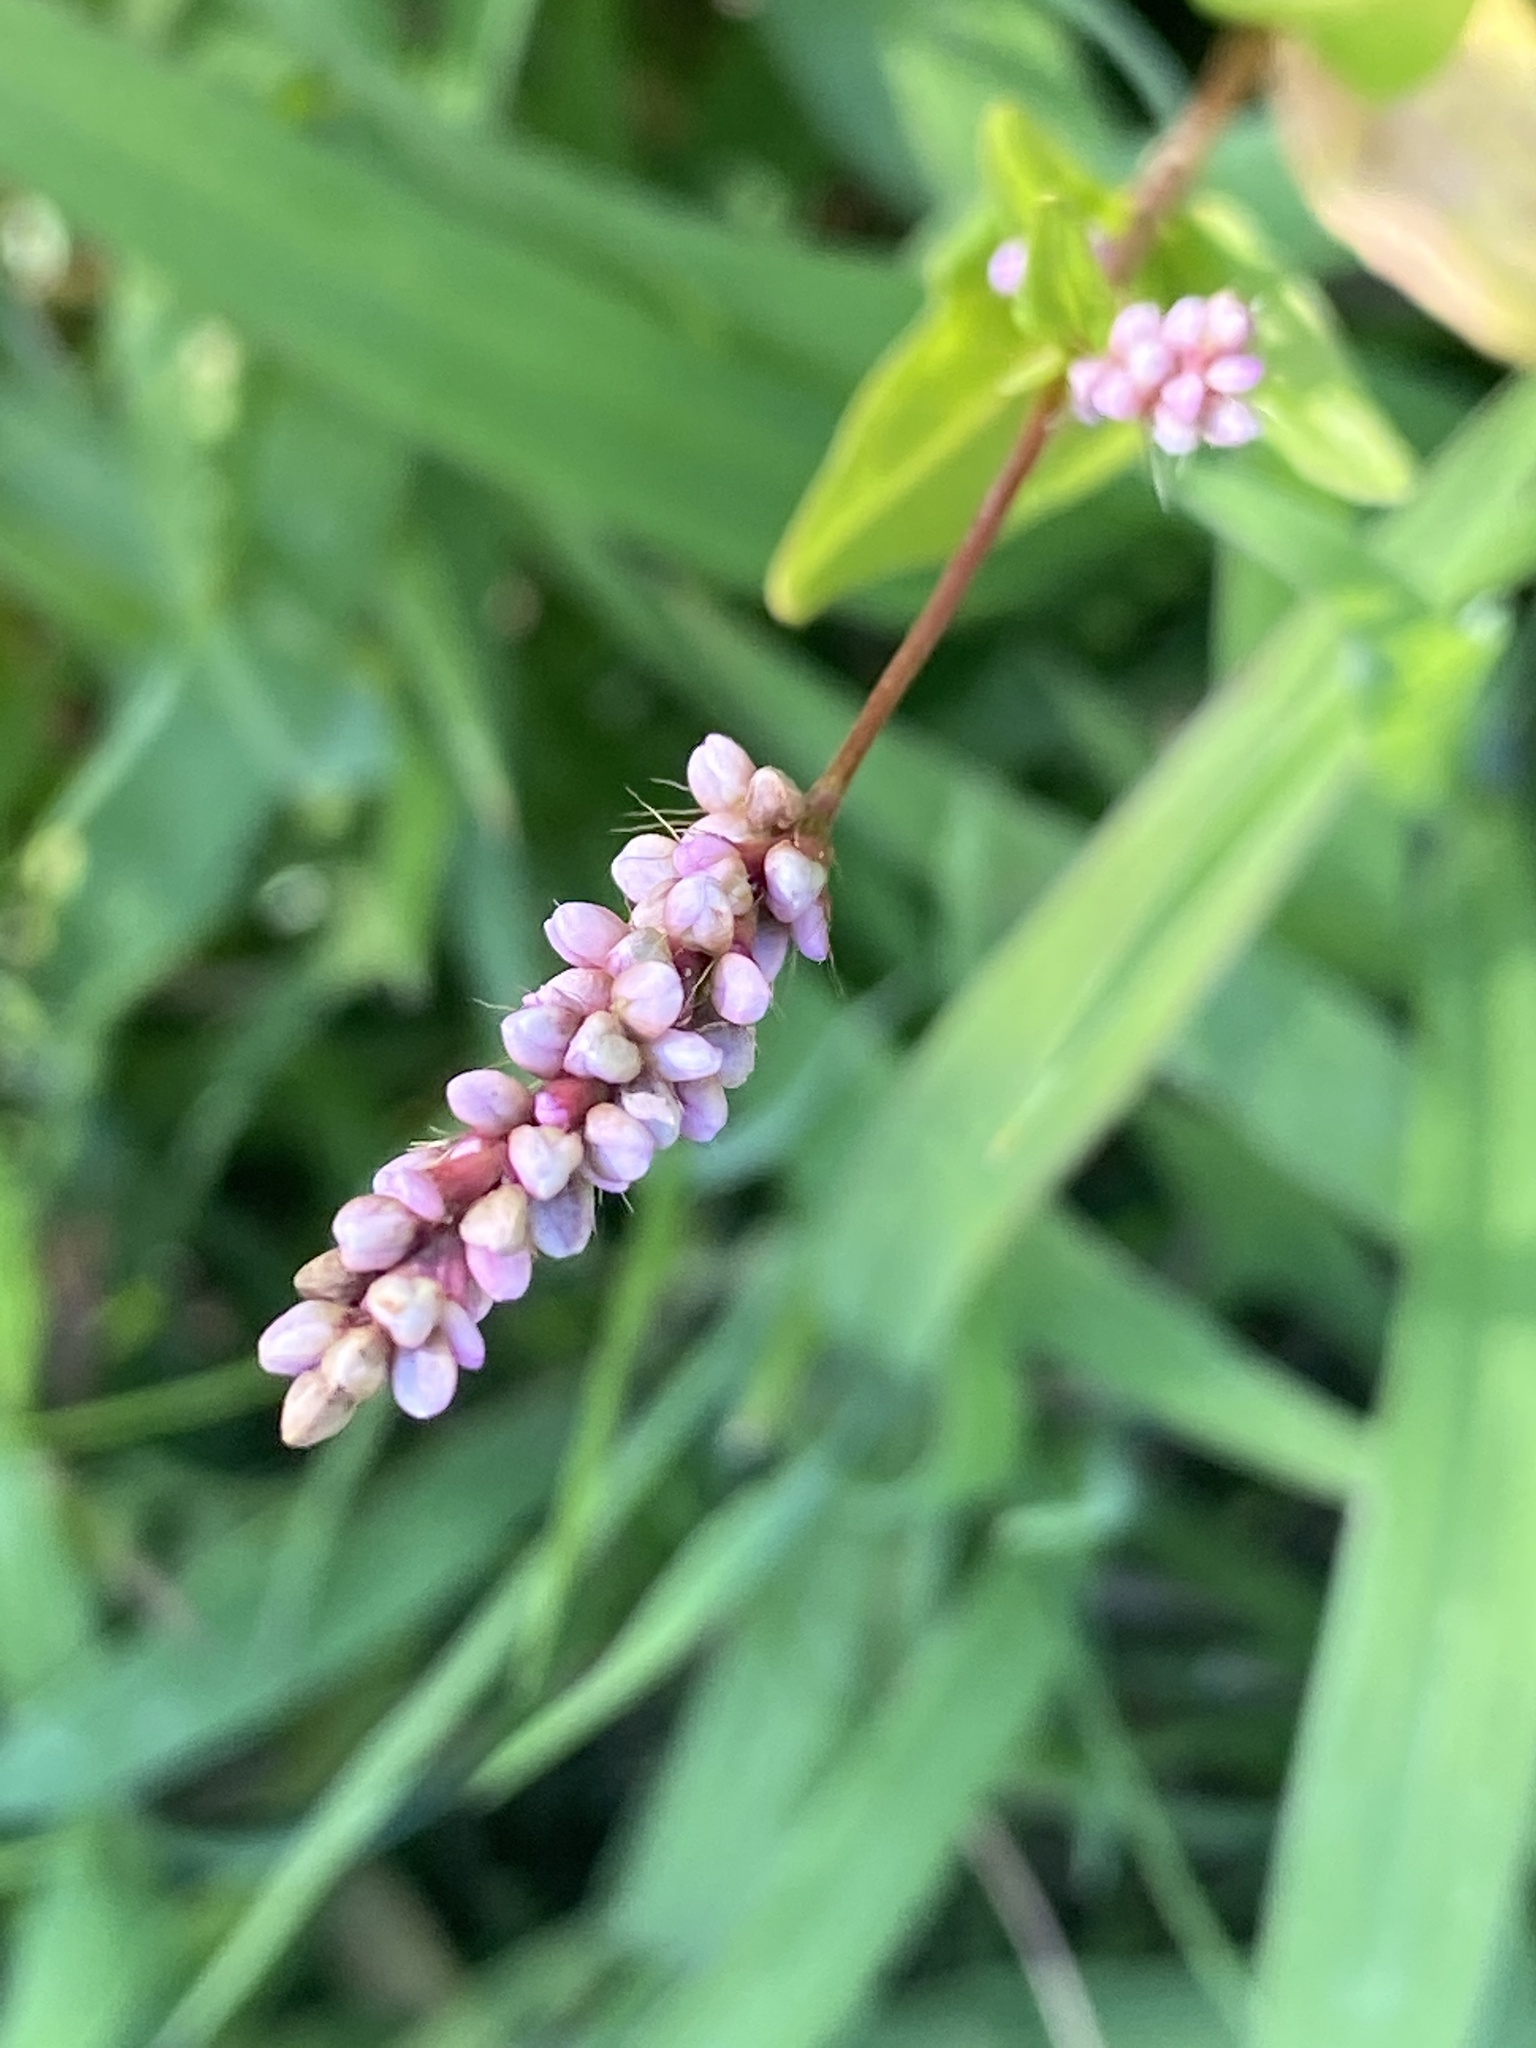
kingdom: Plantae
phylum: Tracheophyta
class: Magnoliopsida
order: Caryophyllales
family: Polygonaceae
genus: Persicaria
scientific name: Persicaria longiseta
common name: Bristly lady's-thumb
